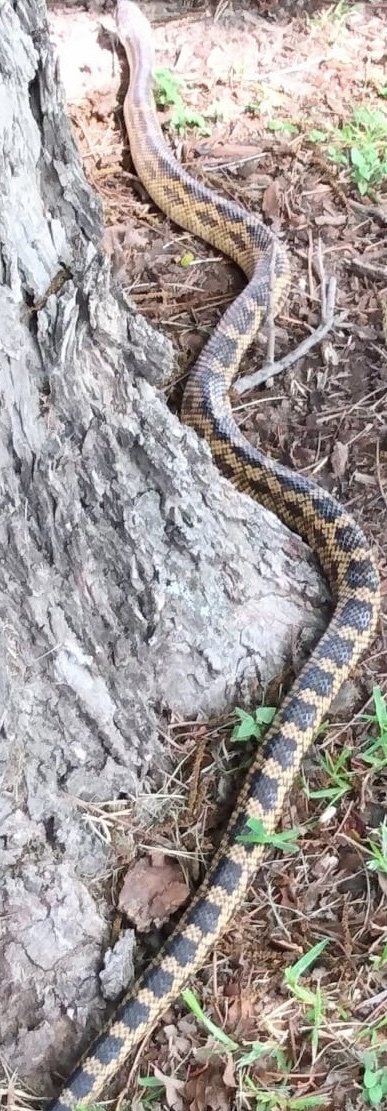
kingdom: Animalia
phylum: Chordata
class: Squamata
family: Colubridae
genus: Pantherophis
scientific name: Pantherophis obsoletus
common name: Black rat snake
